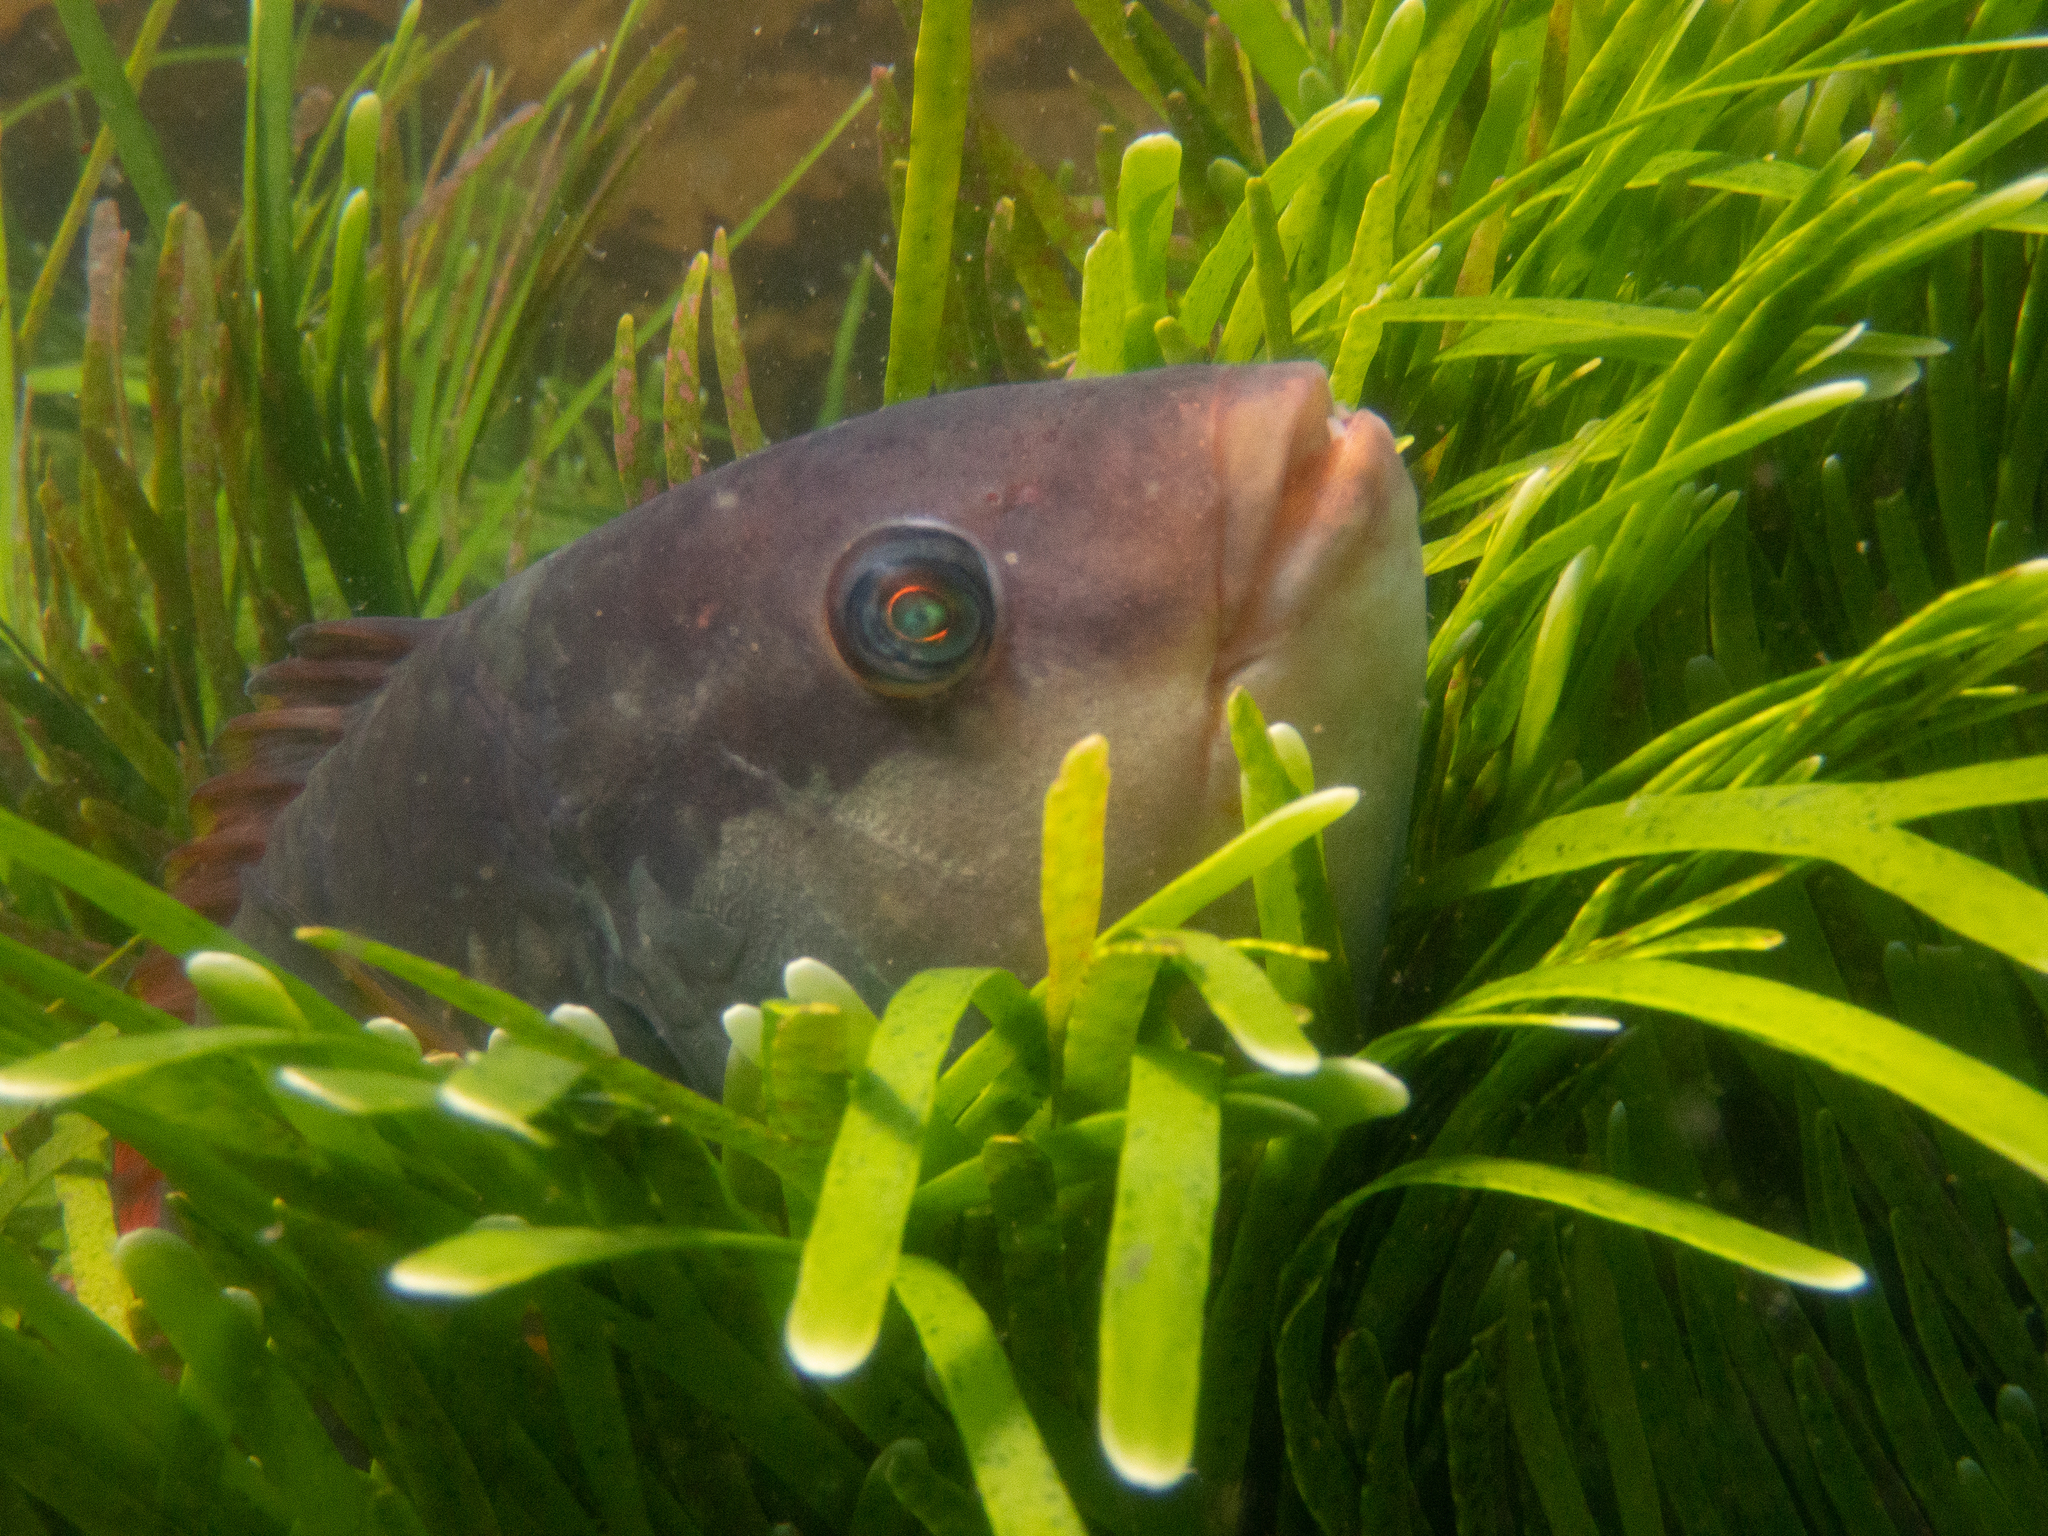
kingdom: Animalia
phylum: Chordata
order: Perciformes
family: Labridae
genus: Notolabrus
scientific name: Notolabrus gymnogenis
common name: Crimson banded wrasse
